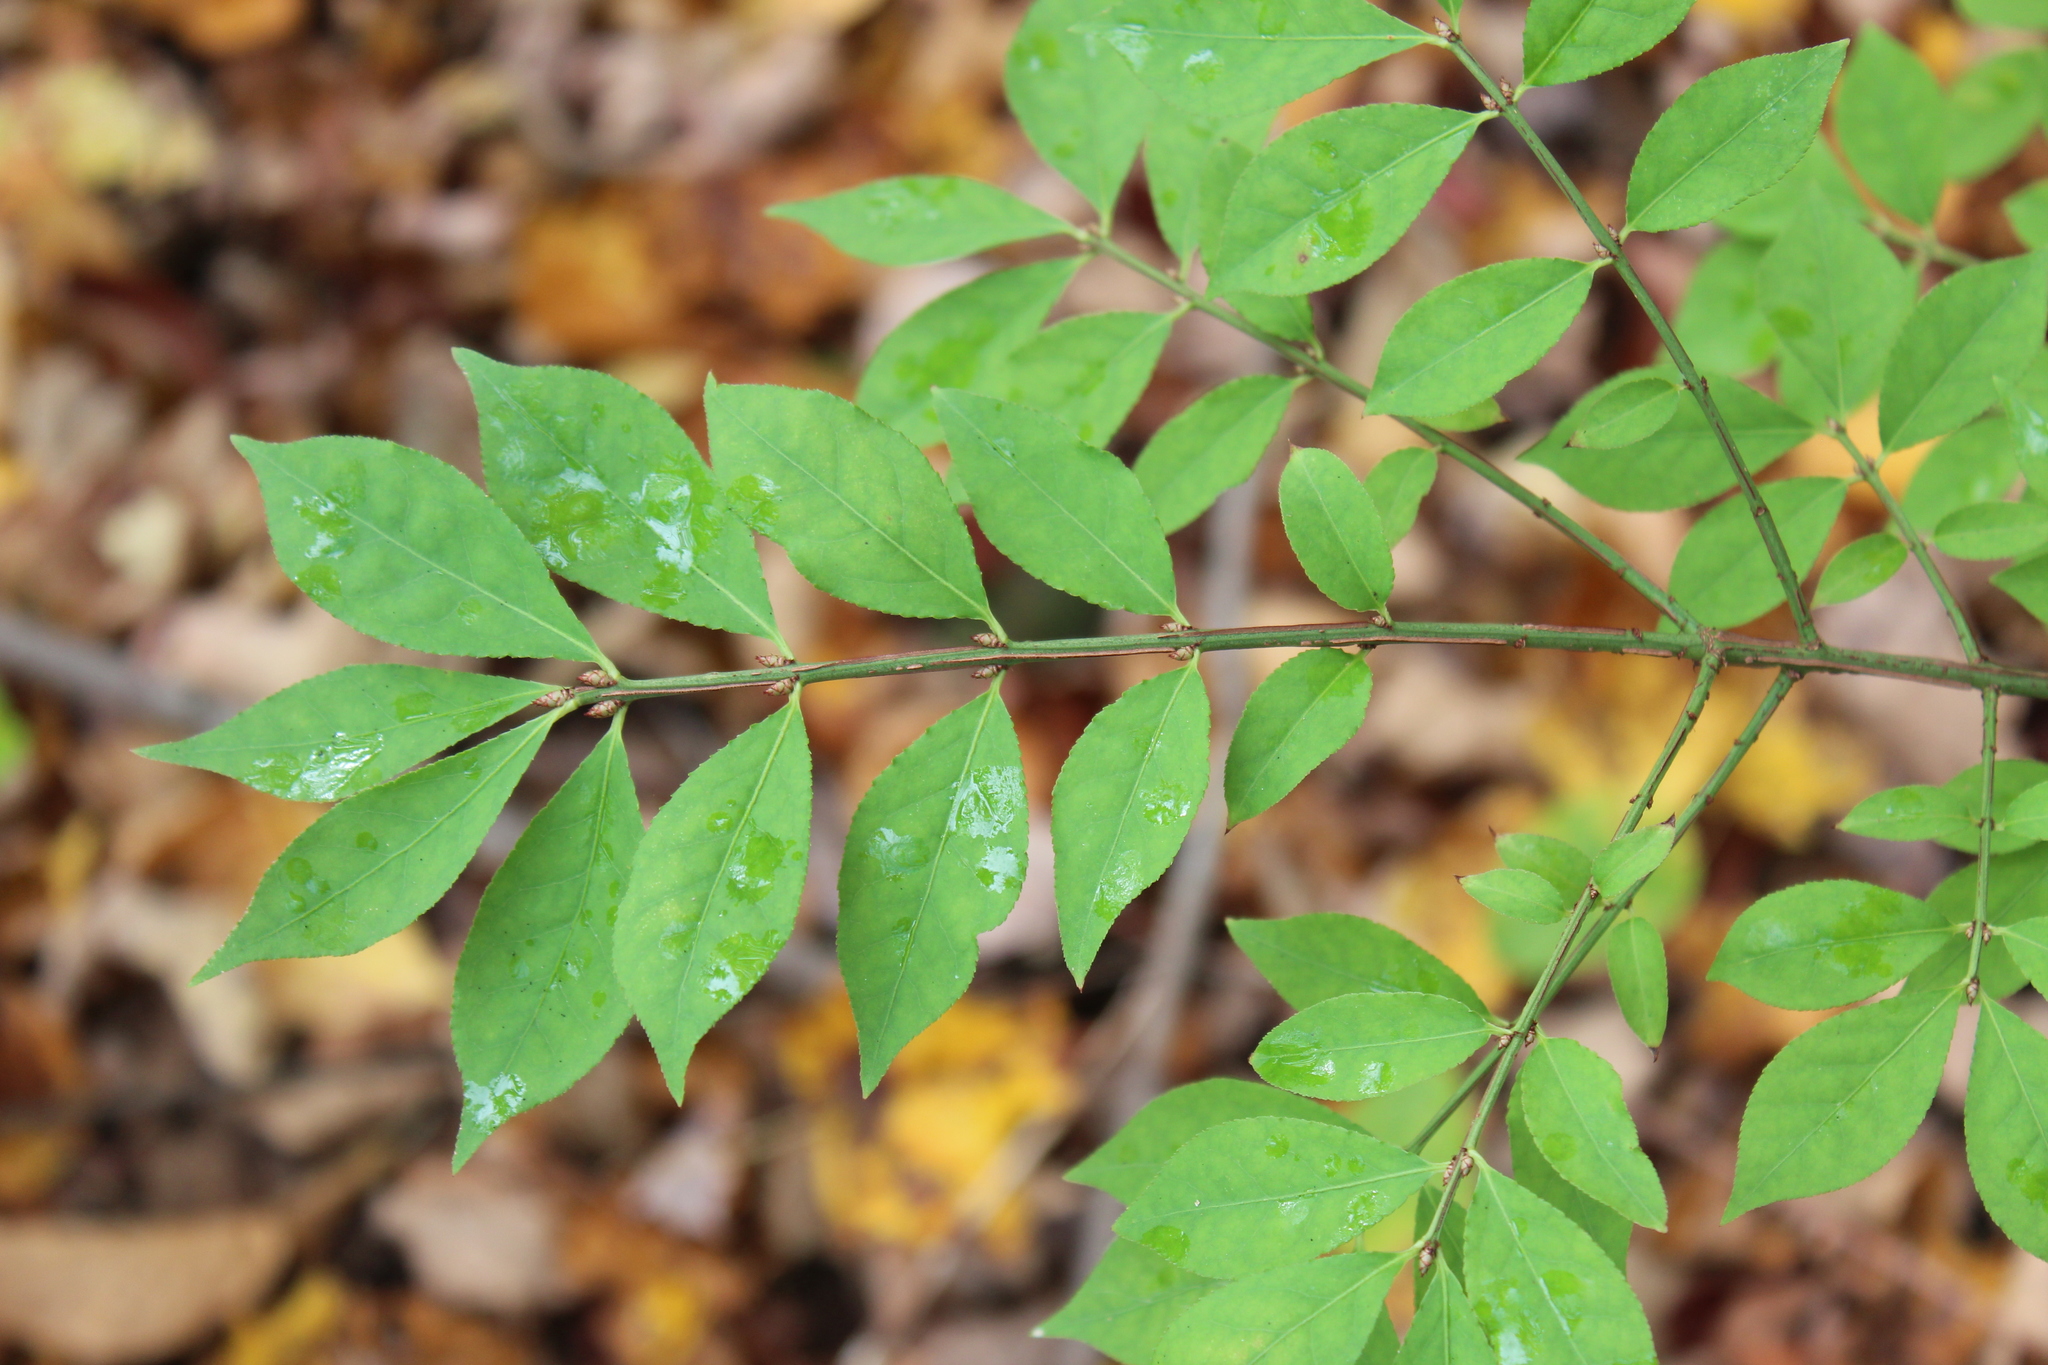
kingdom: Plantae
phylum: Tracheophyta
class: Magnoliopsida
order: Celastrales
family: Celastraceae
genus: Euonymus
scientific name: Euonymus alatus
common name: Winged euonymus
